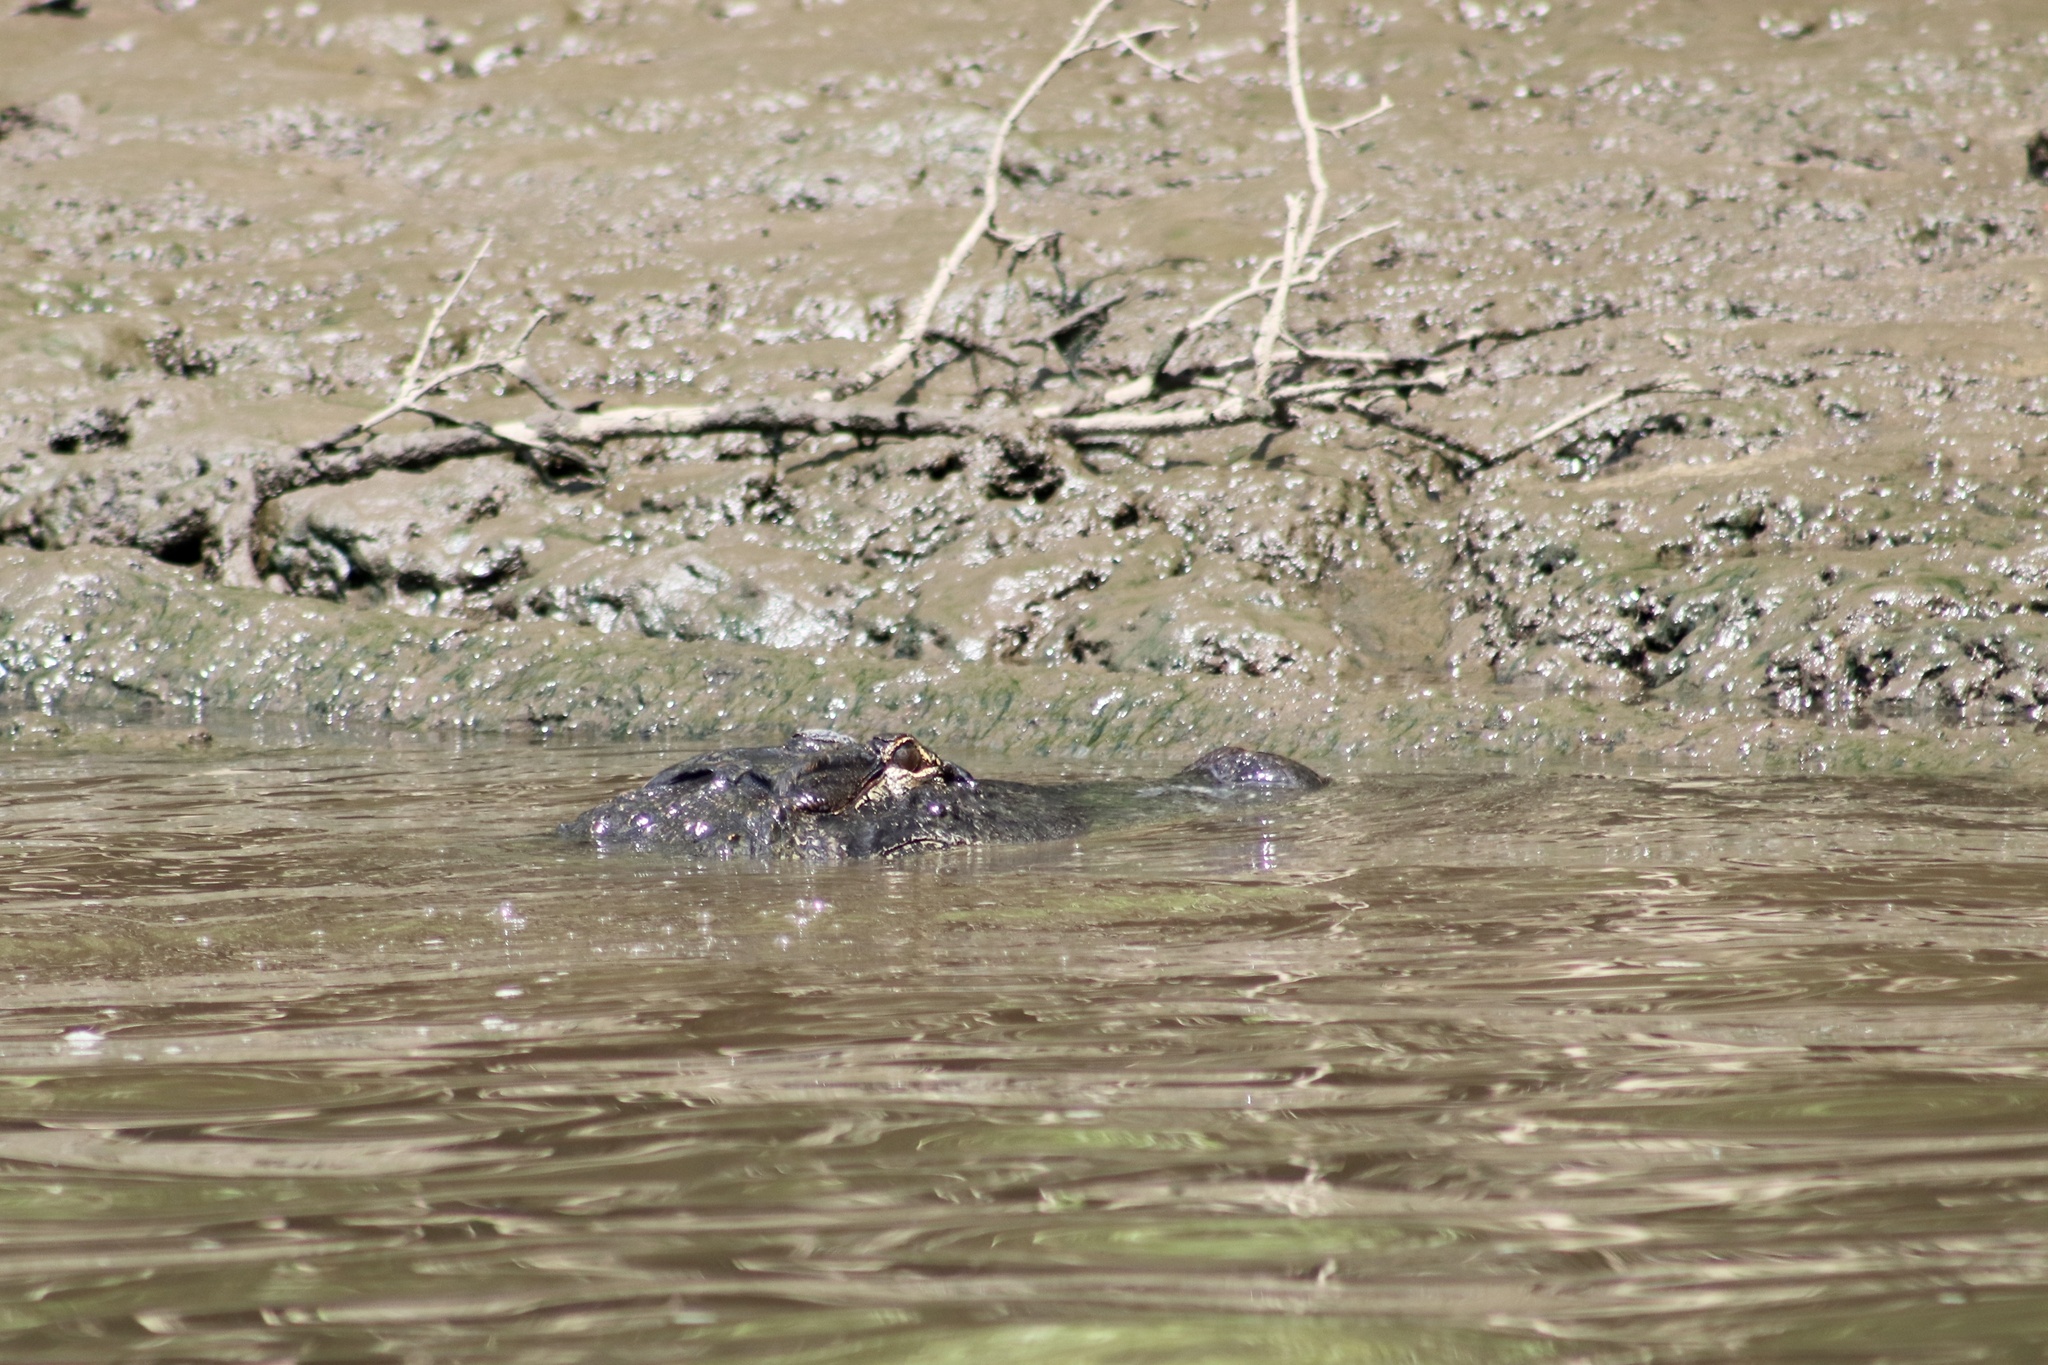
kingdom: Animalia
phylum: Chordata
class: Crocodylia
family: Alligatoridae
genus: Alligator
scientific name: Alligator mississippiensis
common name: American alligator
